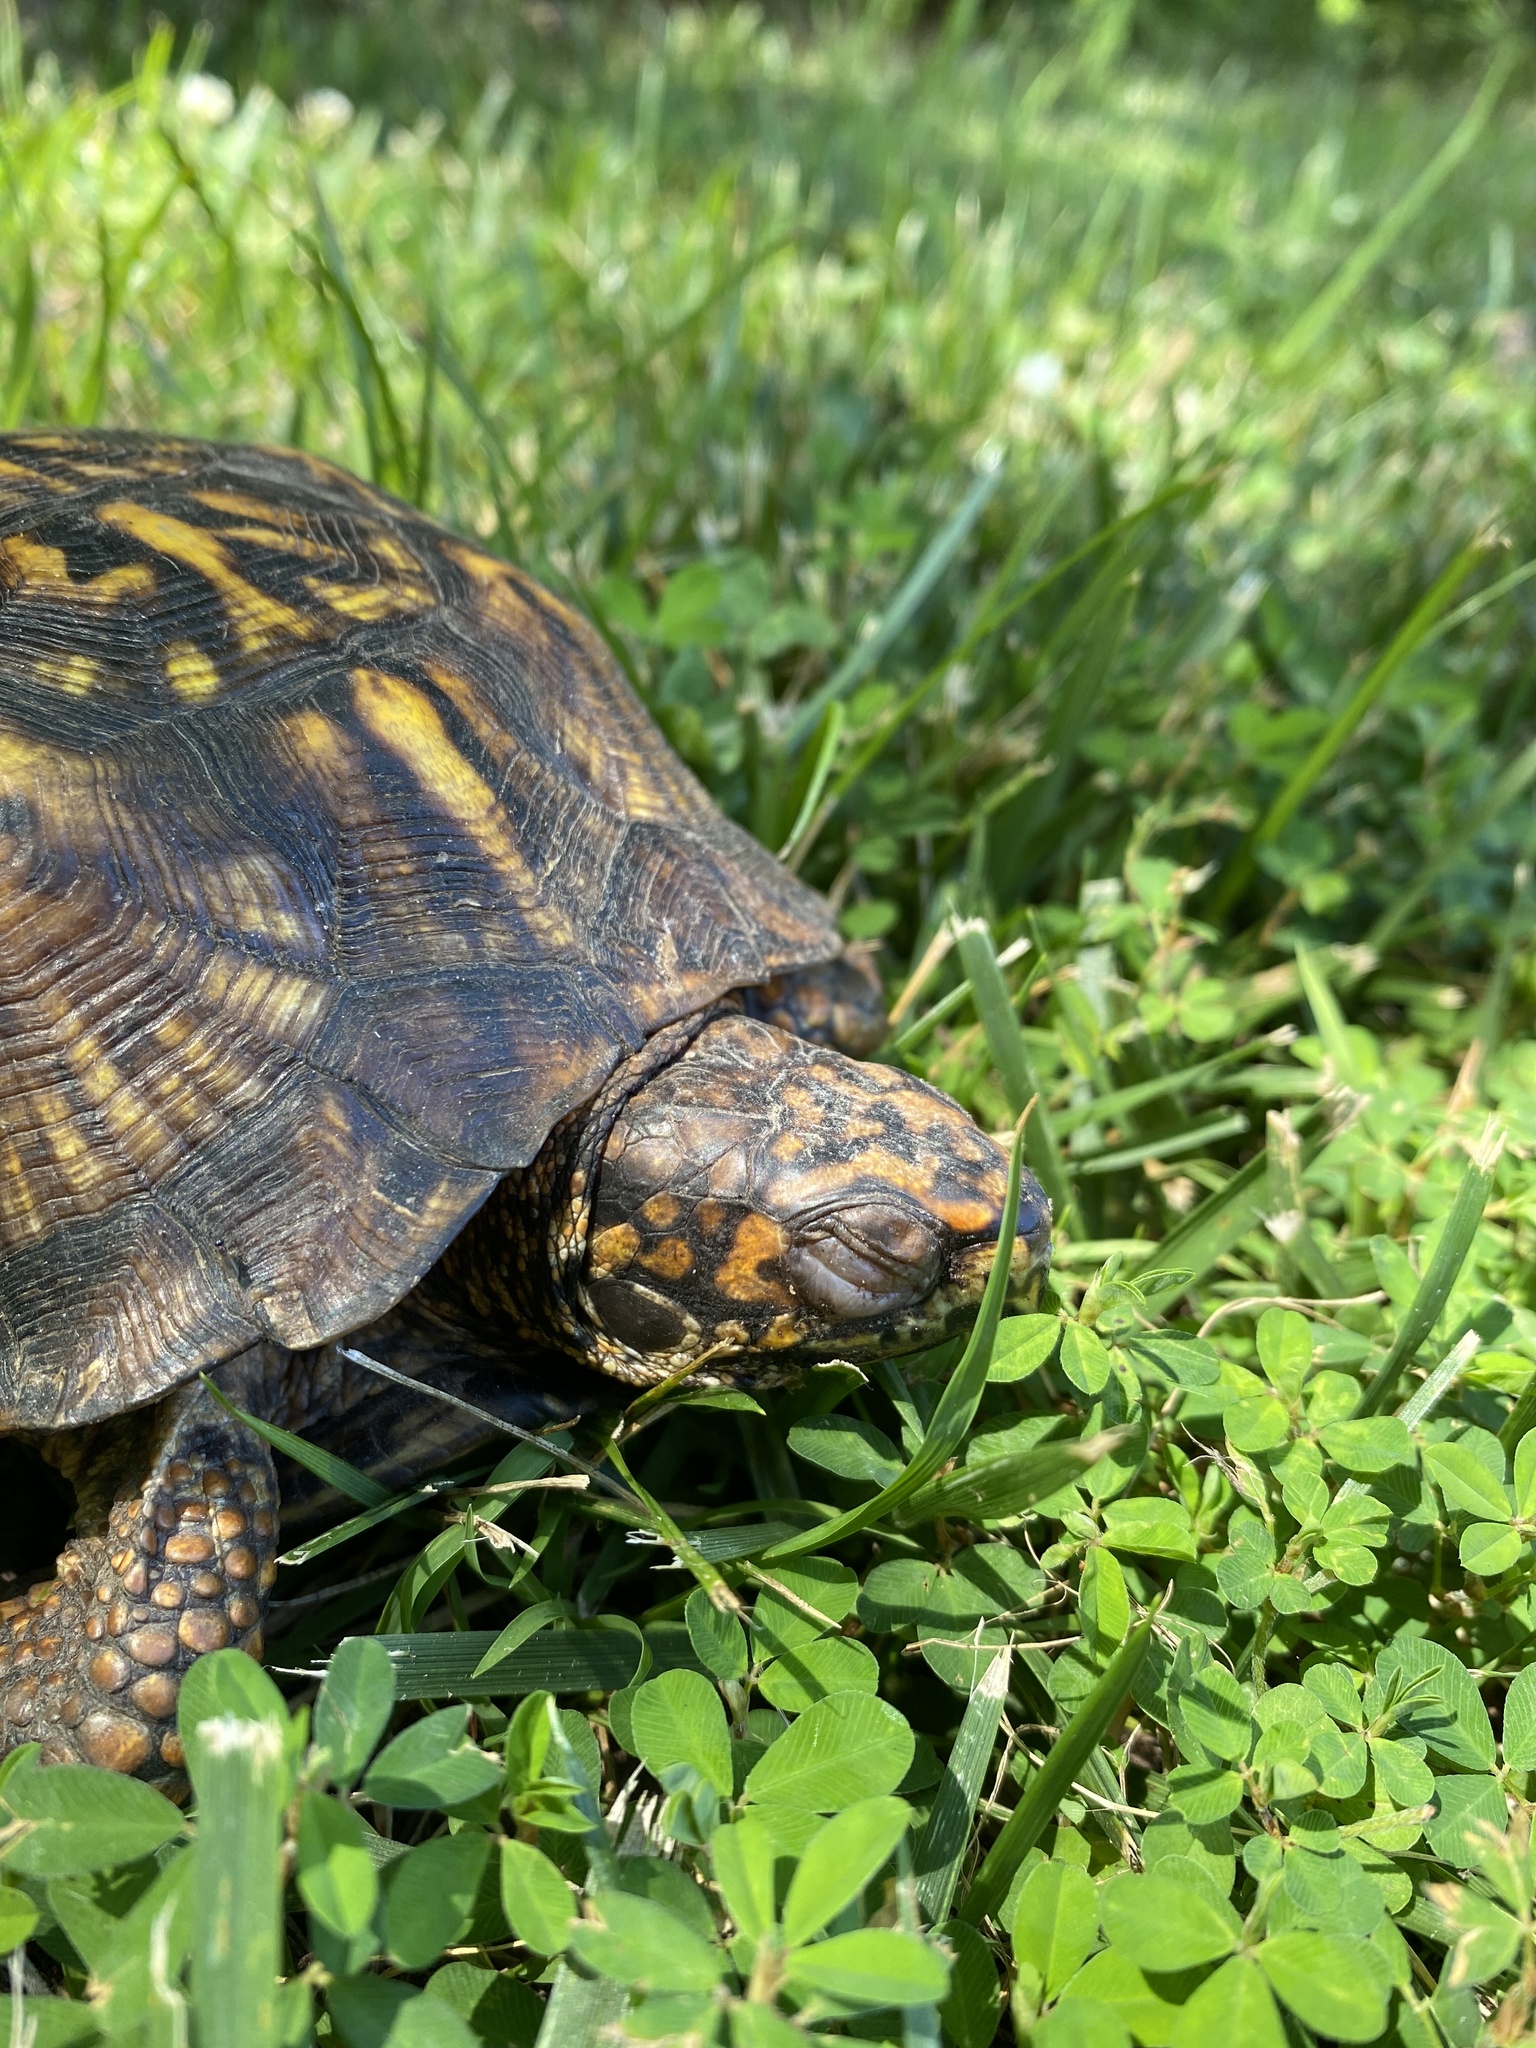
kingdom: Animalia
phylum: Chordata
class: Testudines
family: Emydidae
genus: Terrapene
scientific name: Terrapene carolina
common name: Common box turtle
